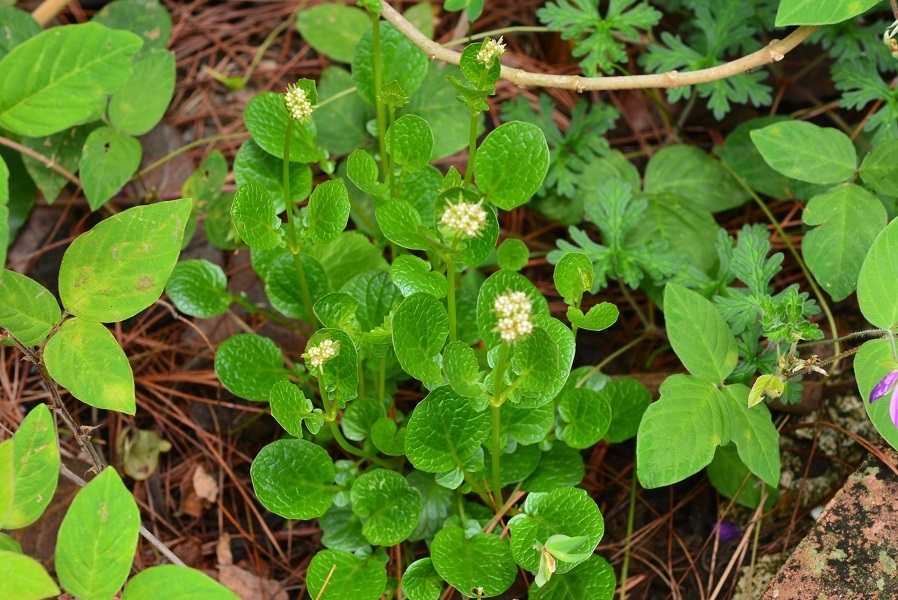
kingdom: Plantae
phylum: Tracheophyta
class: Magnoliopsida
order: Dipsacales
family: Caprifoliaceae
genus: Valeriana
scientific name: Valeriana tzotziliana
